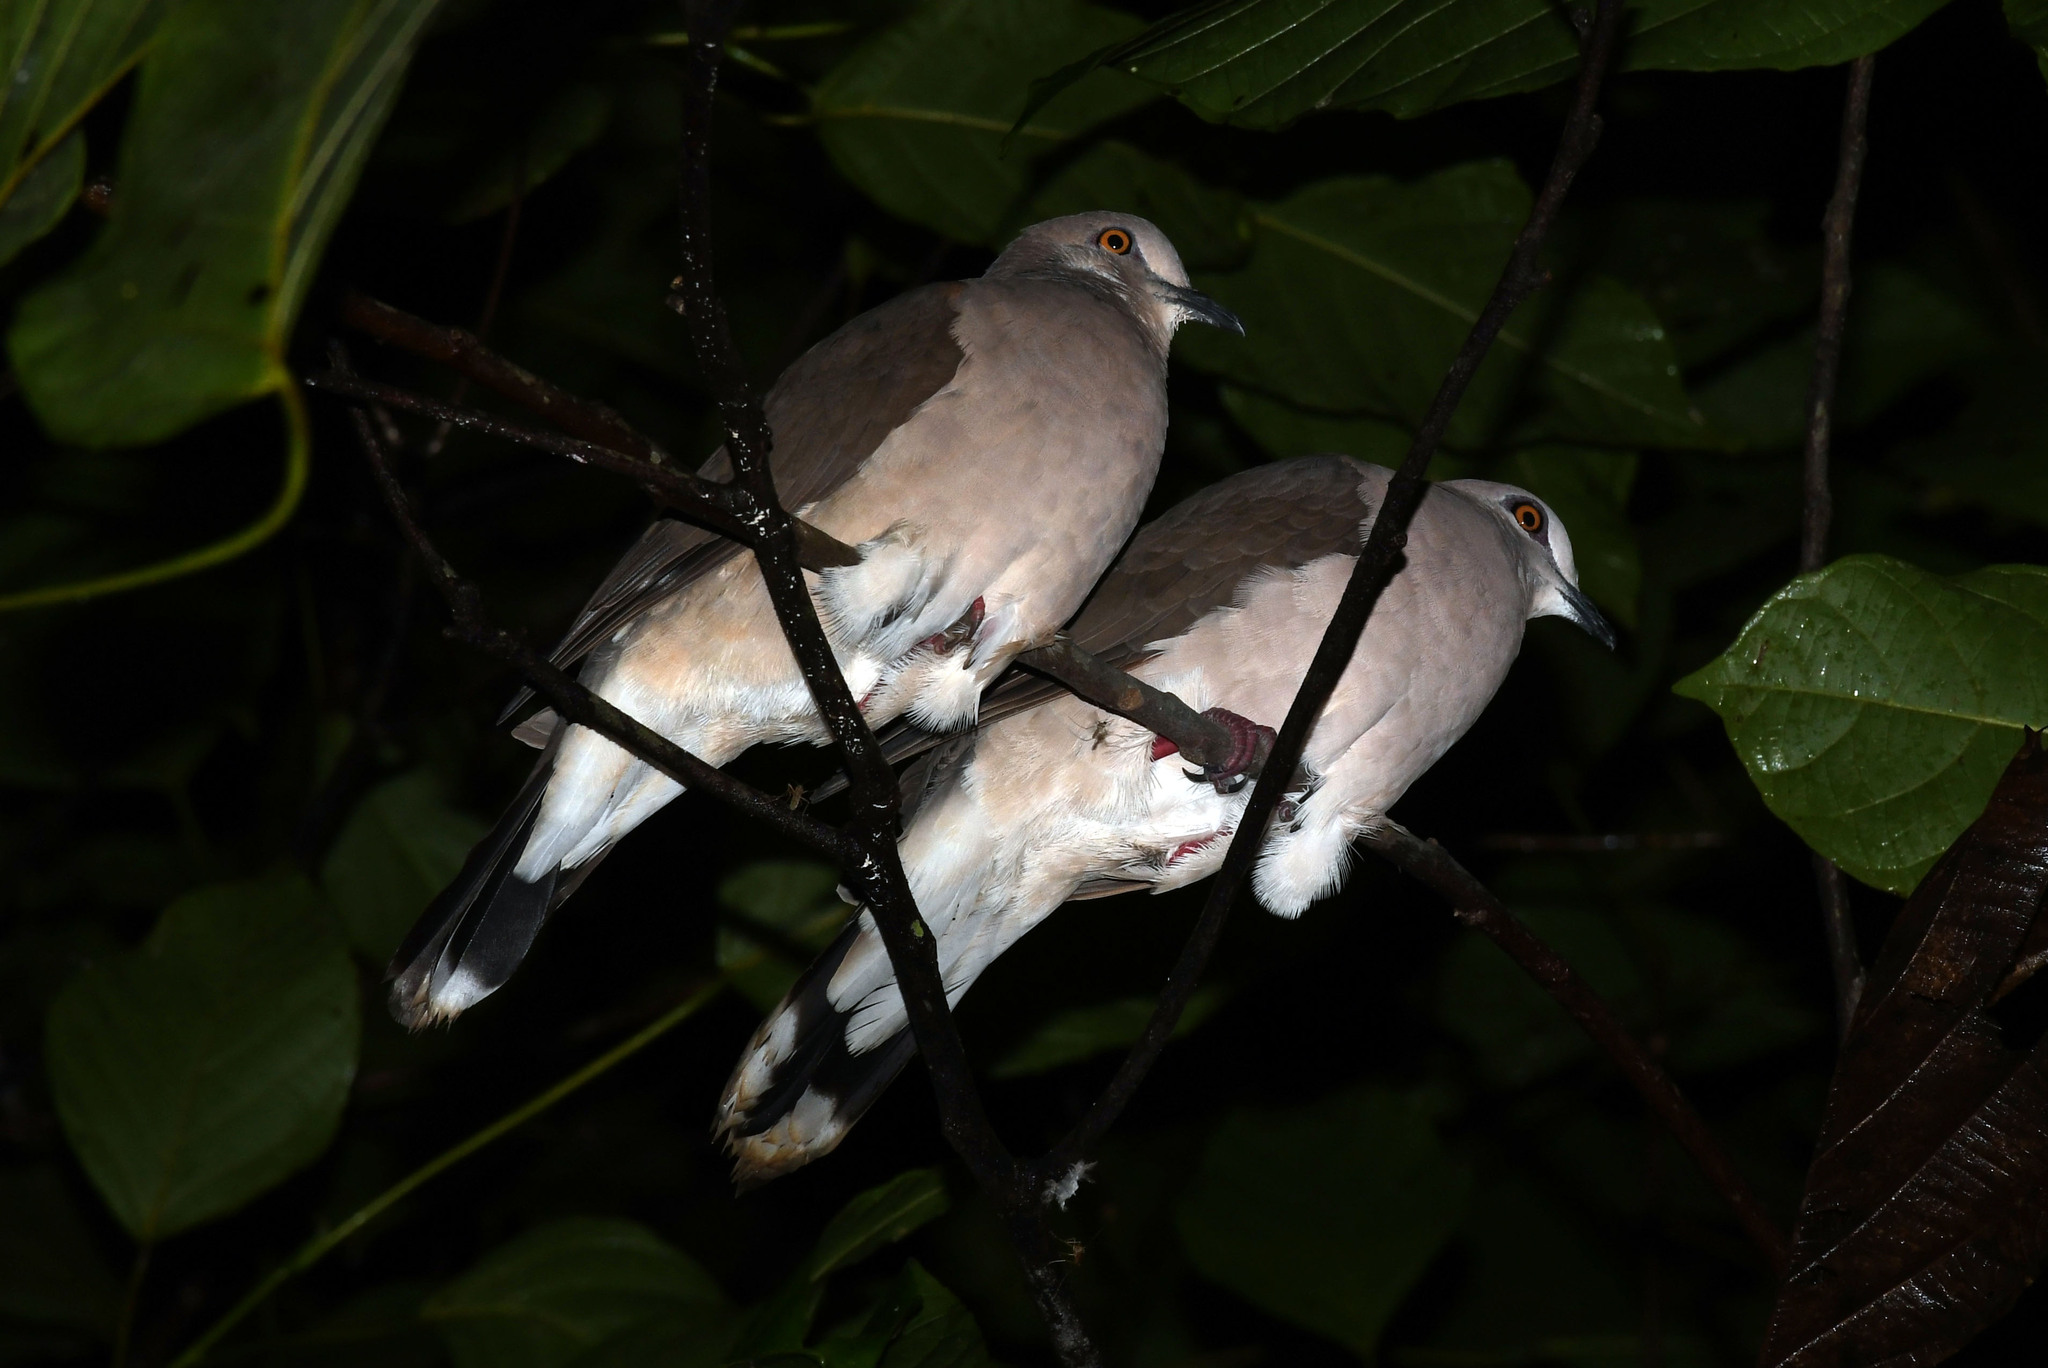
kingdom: Animalia
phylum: Chordata
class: Aves
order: Columbiformes
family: Columbidae
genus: Leptotila
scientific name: Leptotila verreauxi
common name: White-tipped dove
